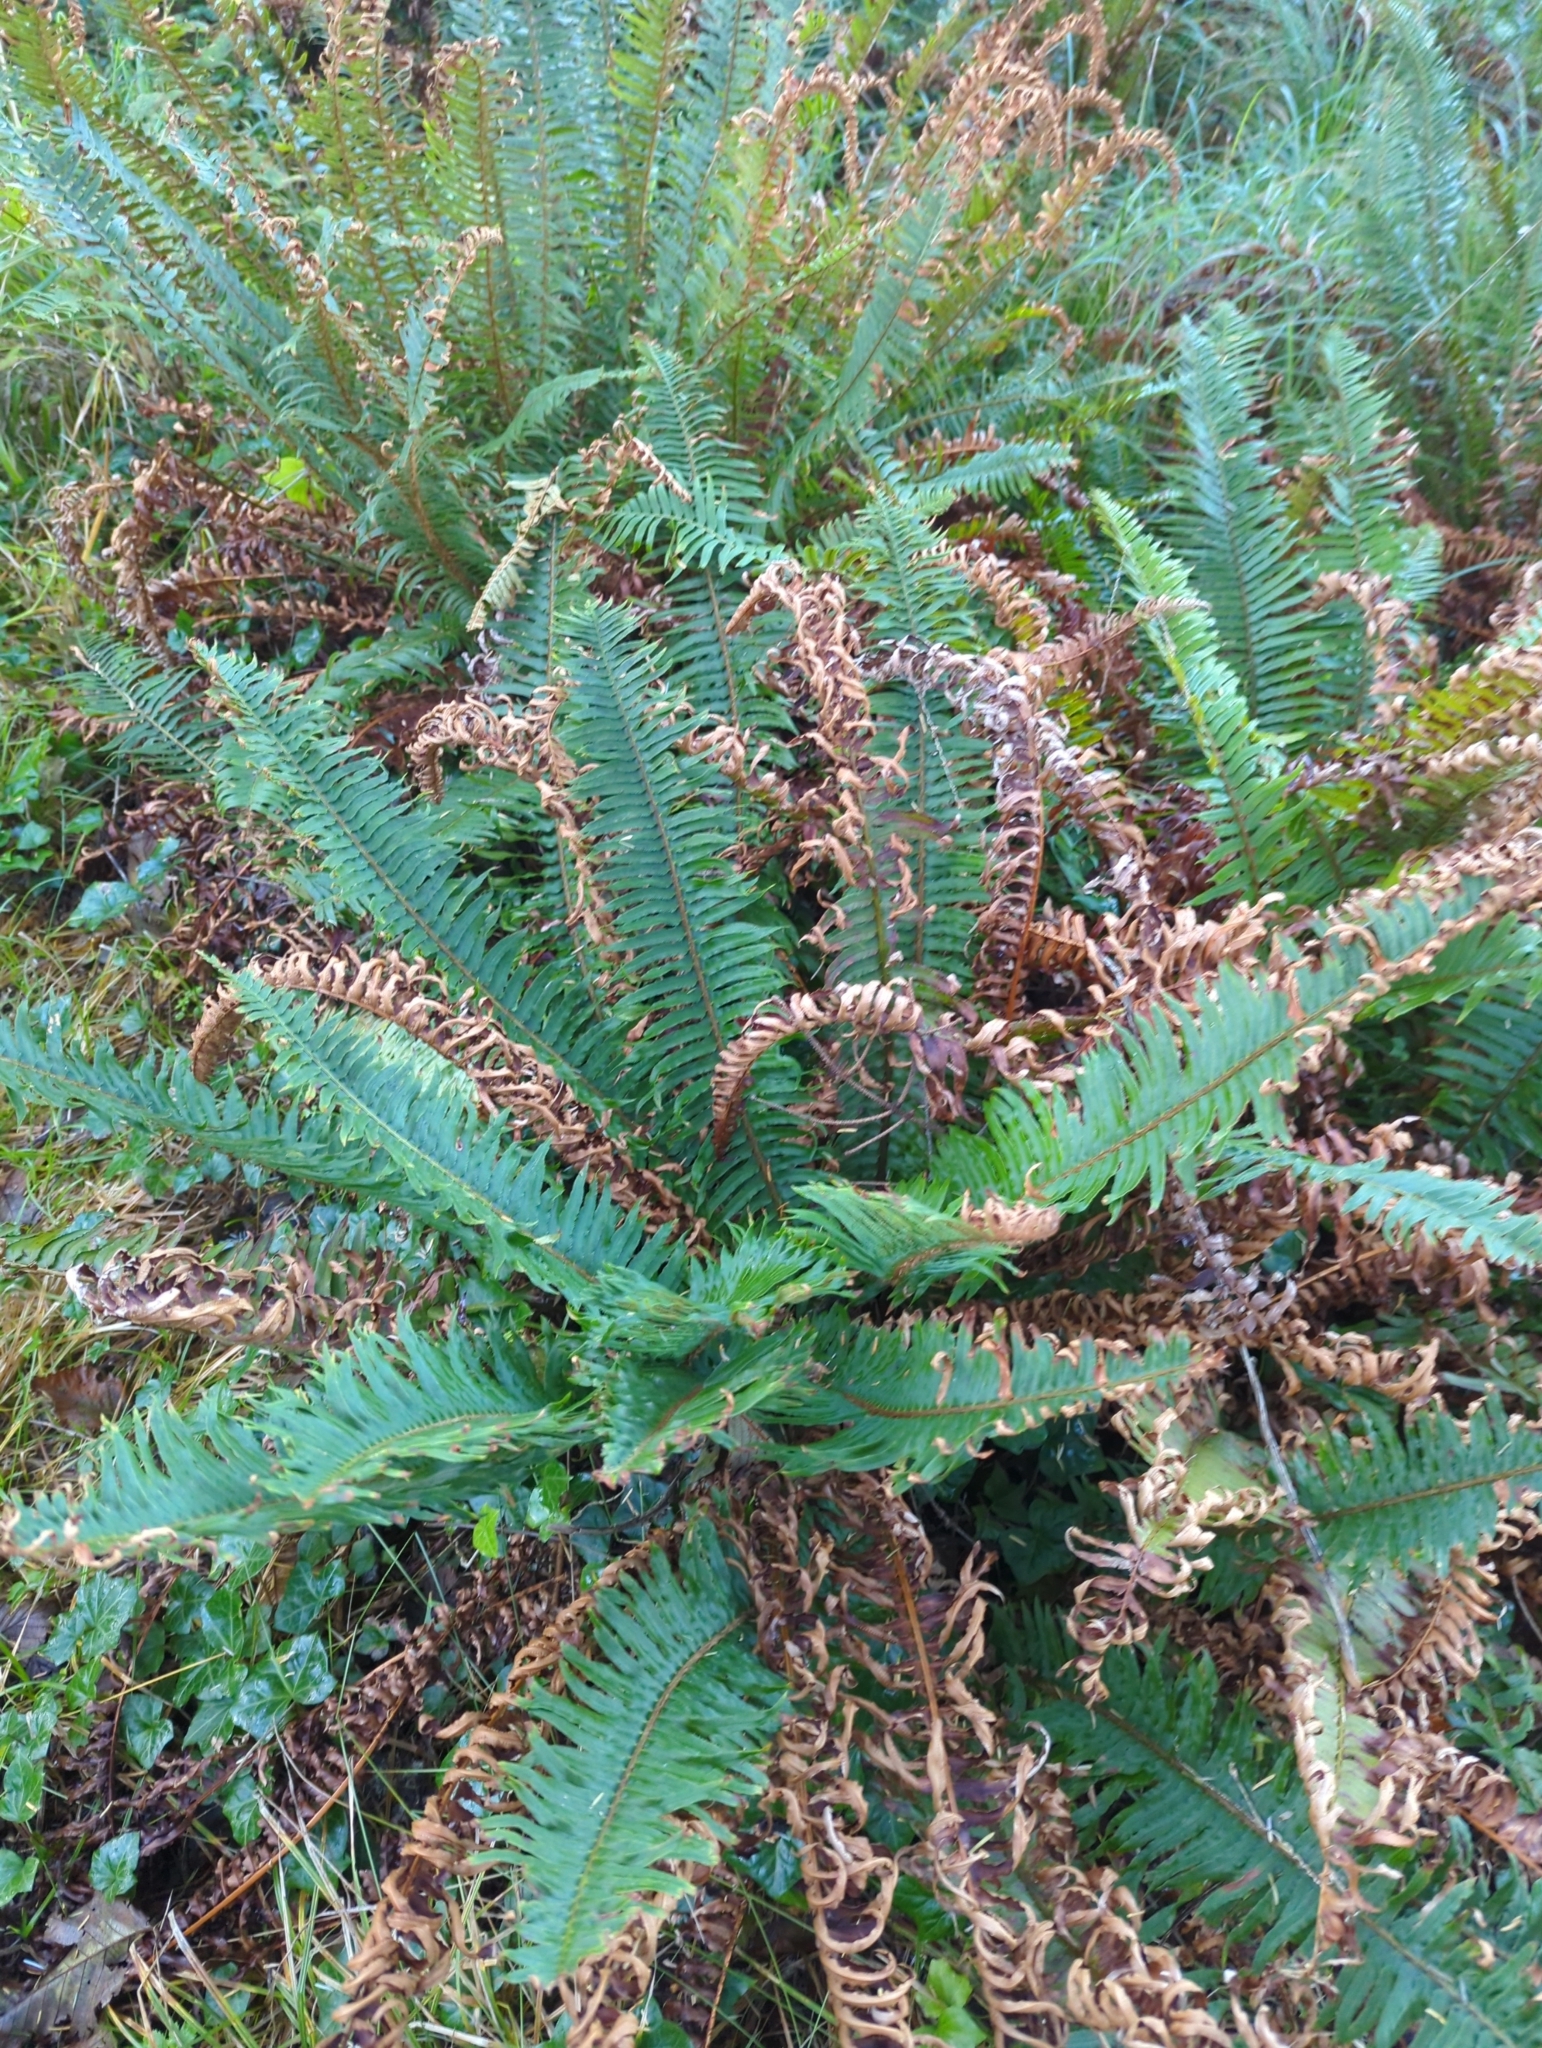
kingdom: Plantae
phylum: Tracheophyta
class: Polypodiopsida
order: Polypodiales
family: Dryopteridaceae
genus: Polystichum
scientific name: Polystichum munitum
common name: Western sword-fern
